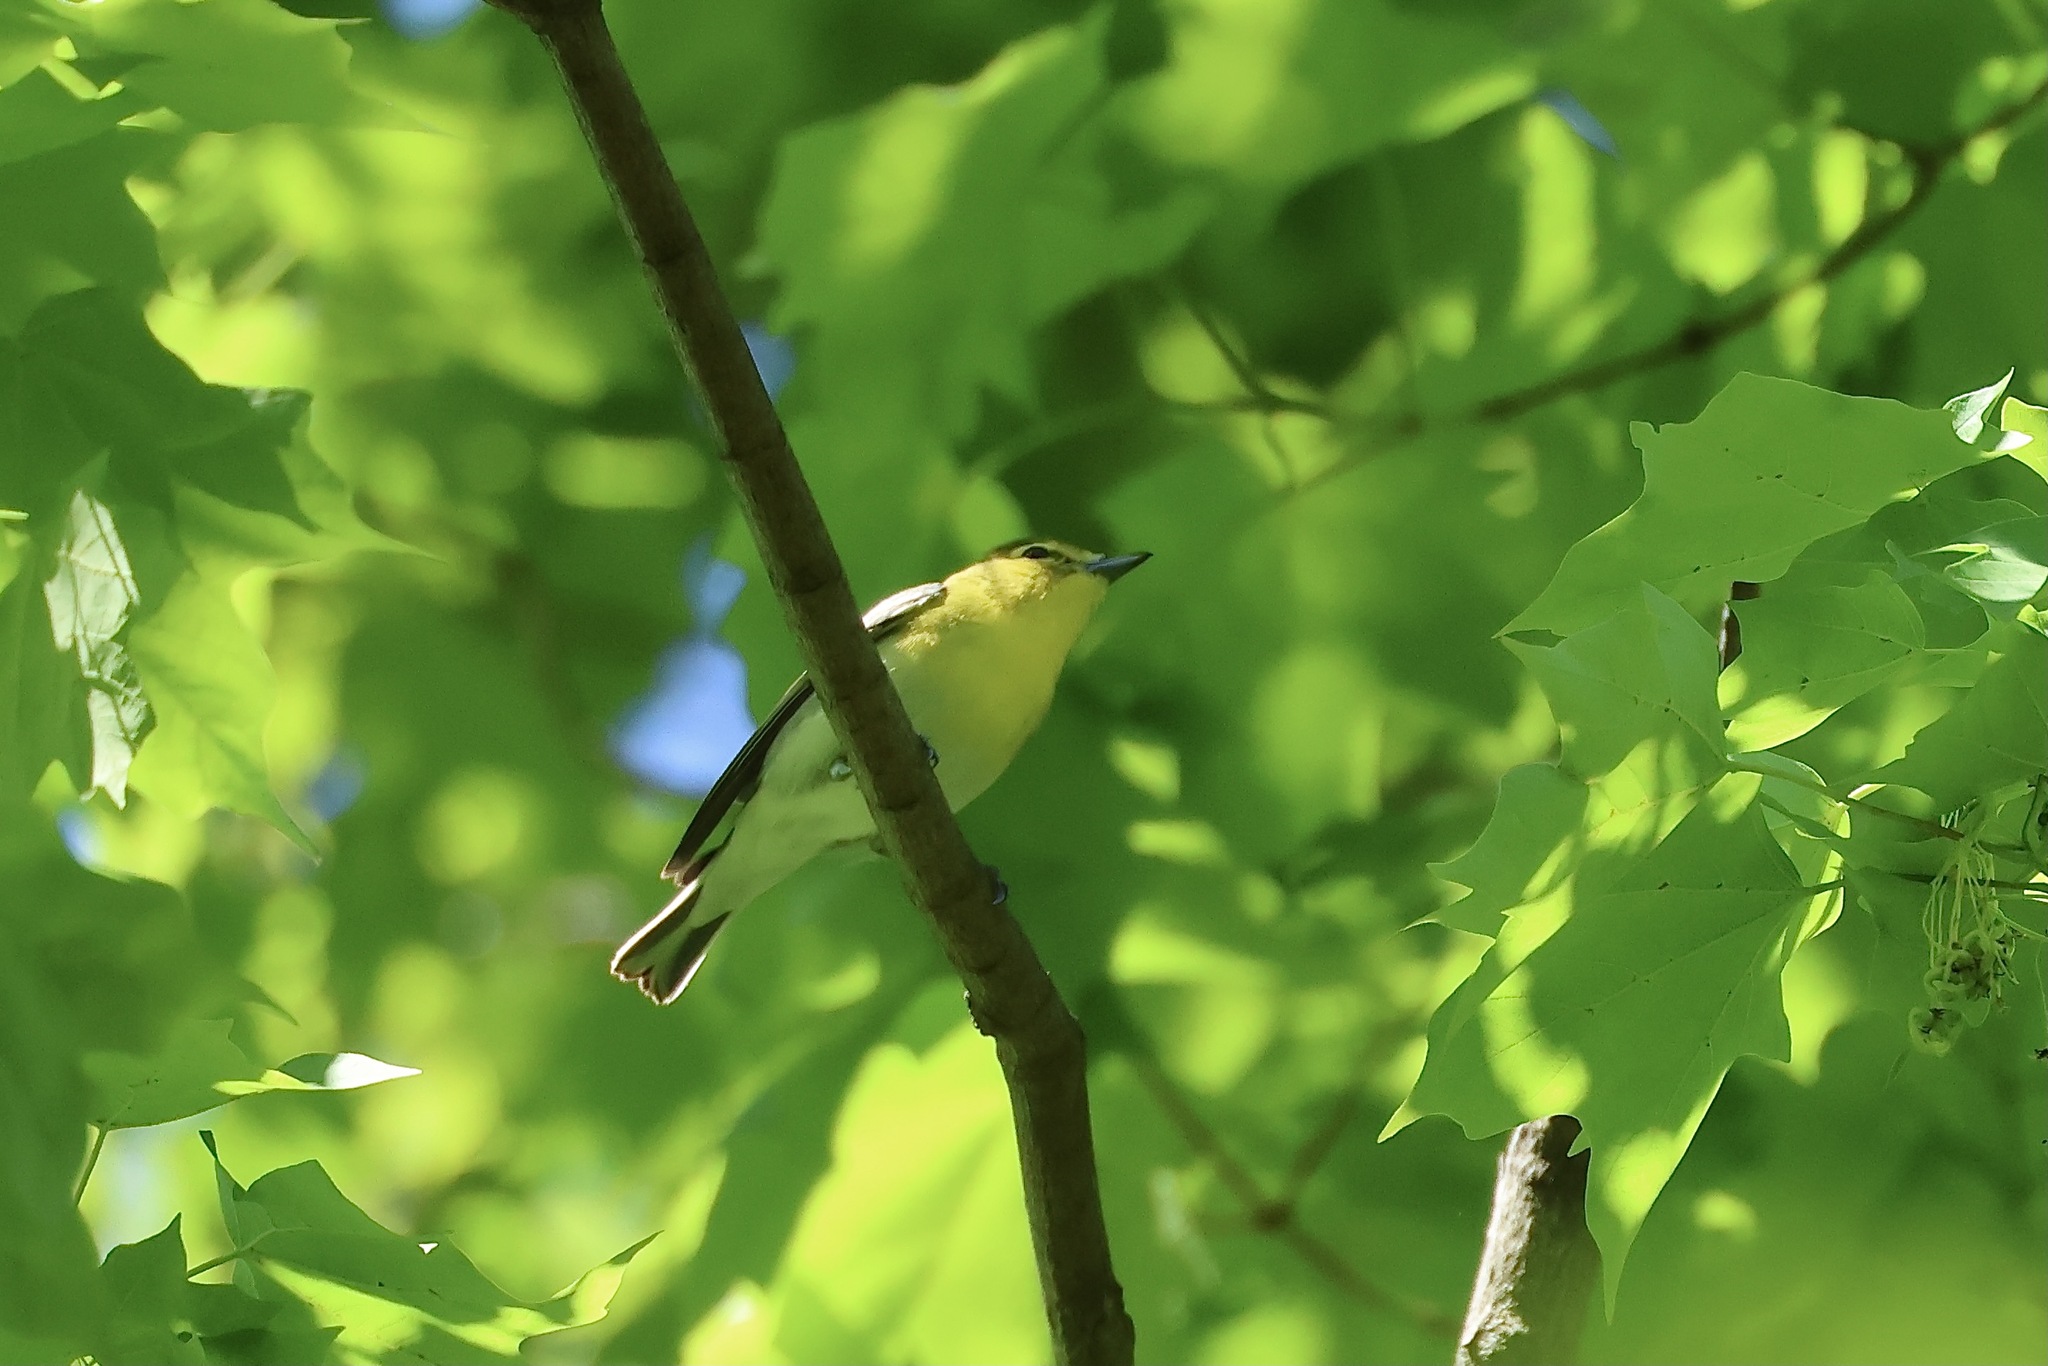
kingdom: Animalia
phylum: Chordata
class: Aves
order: Passeriformes
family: Vireonidae
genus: Vireo
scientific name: Vireo flavifrons
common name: Yellow-throated vireo
